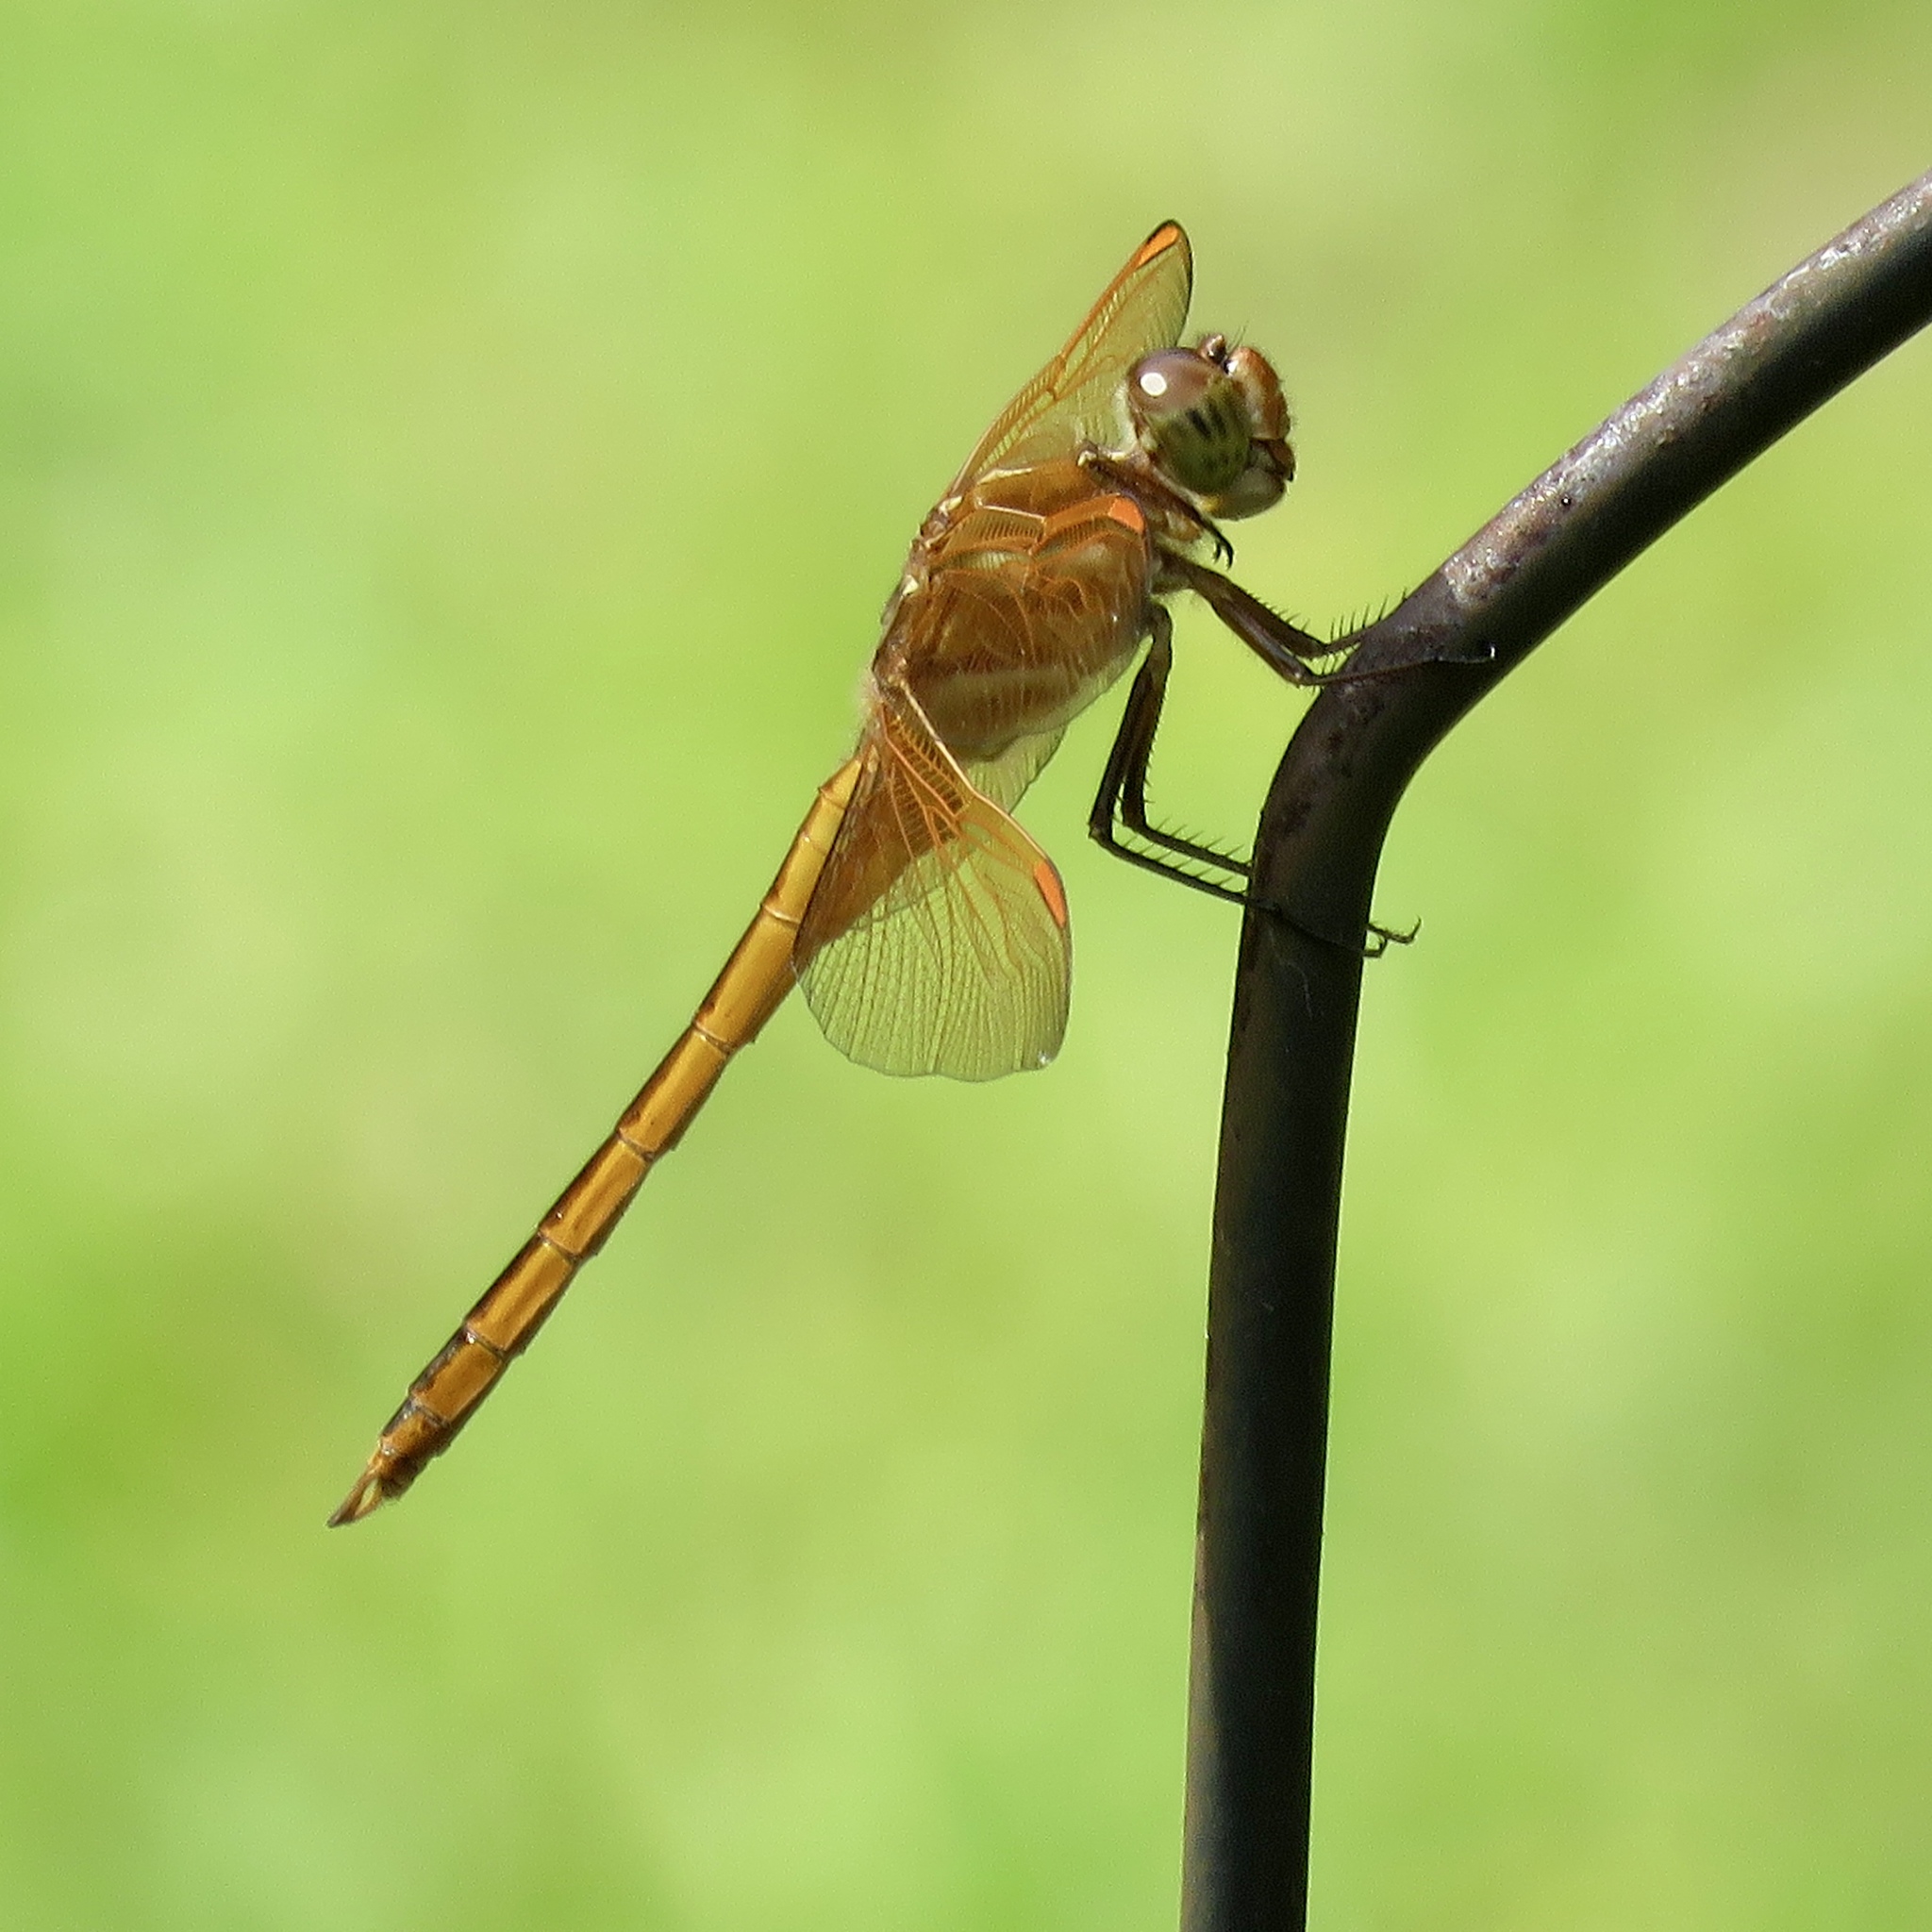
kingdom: Animalia
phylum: Arthropoda
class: Insecta
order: Odonata
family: Libellulidae
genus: Libellula
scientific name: Libellula auripennis
